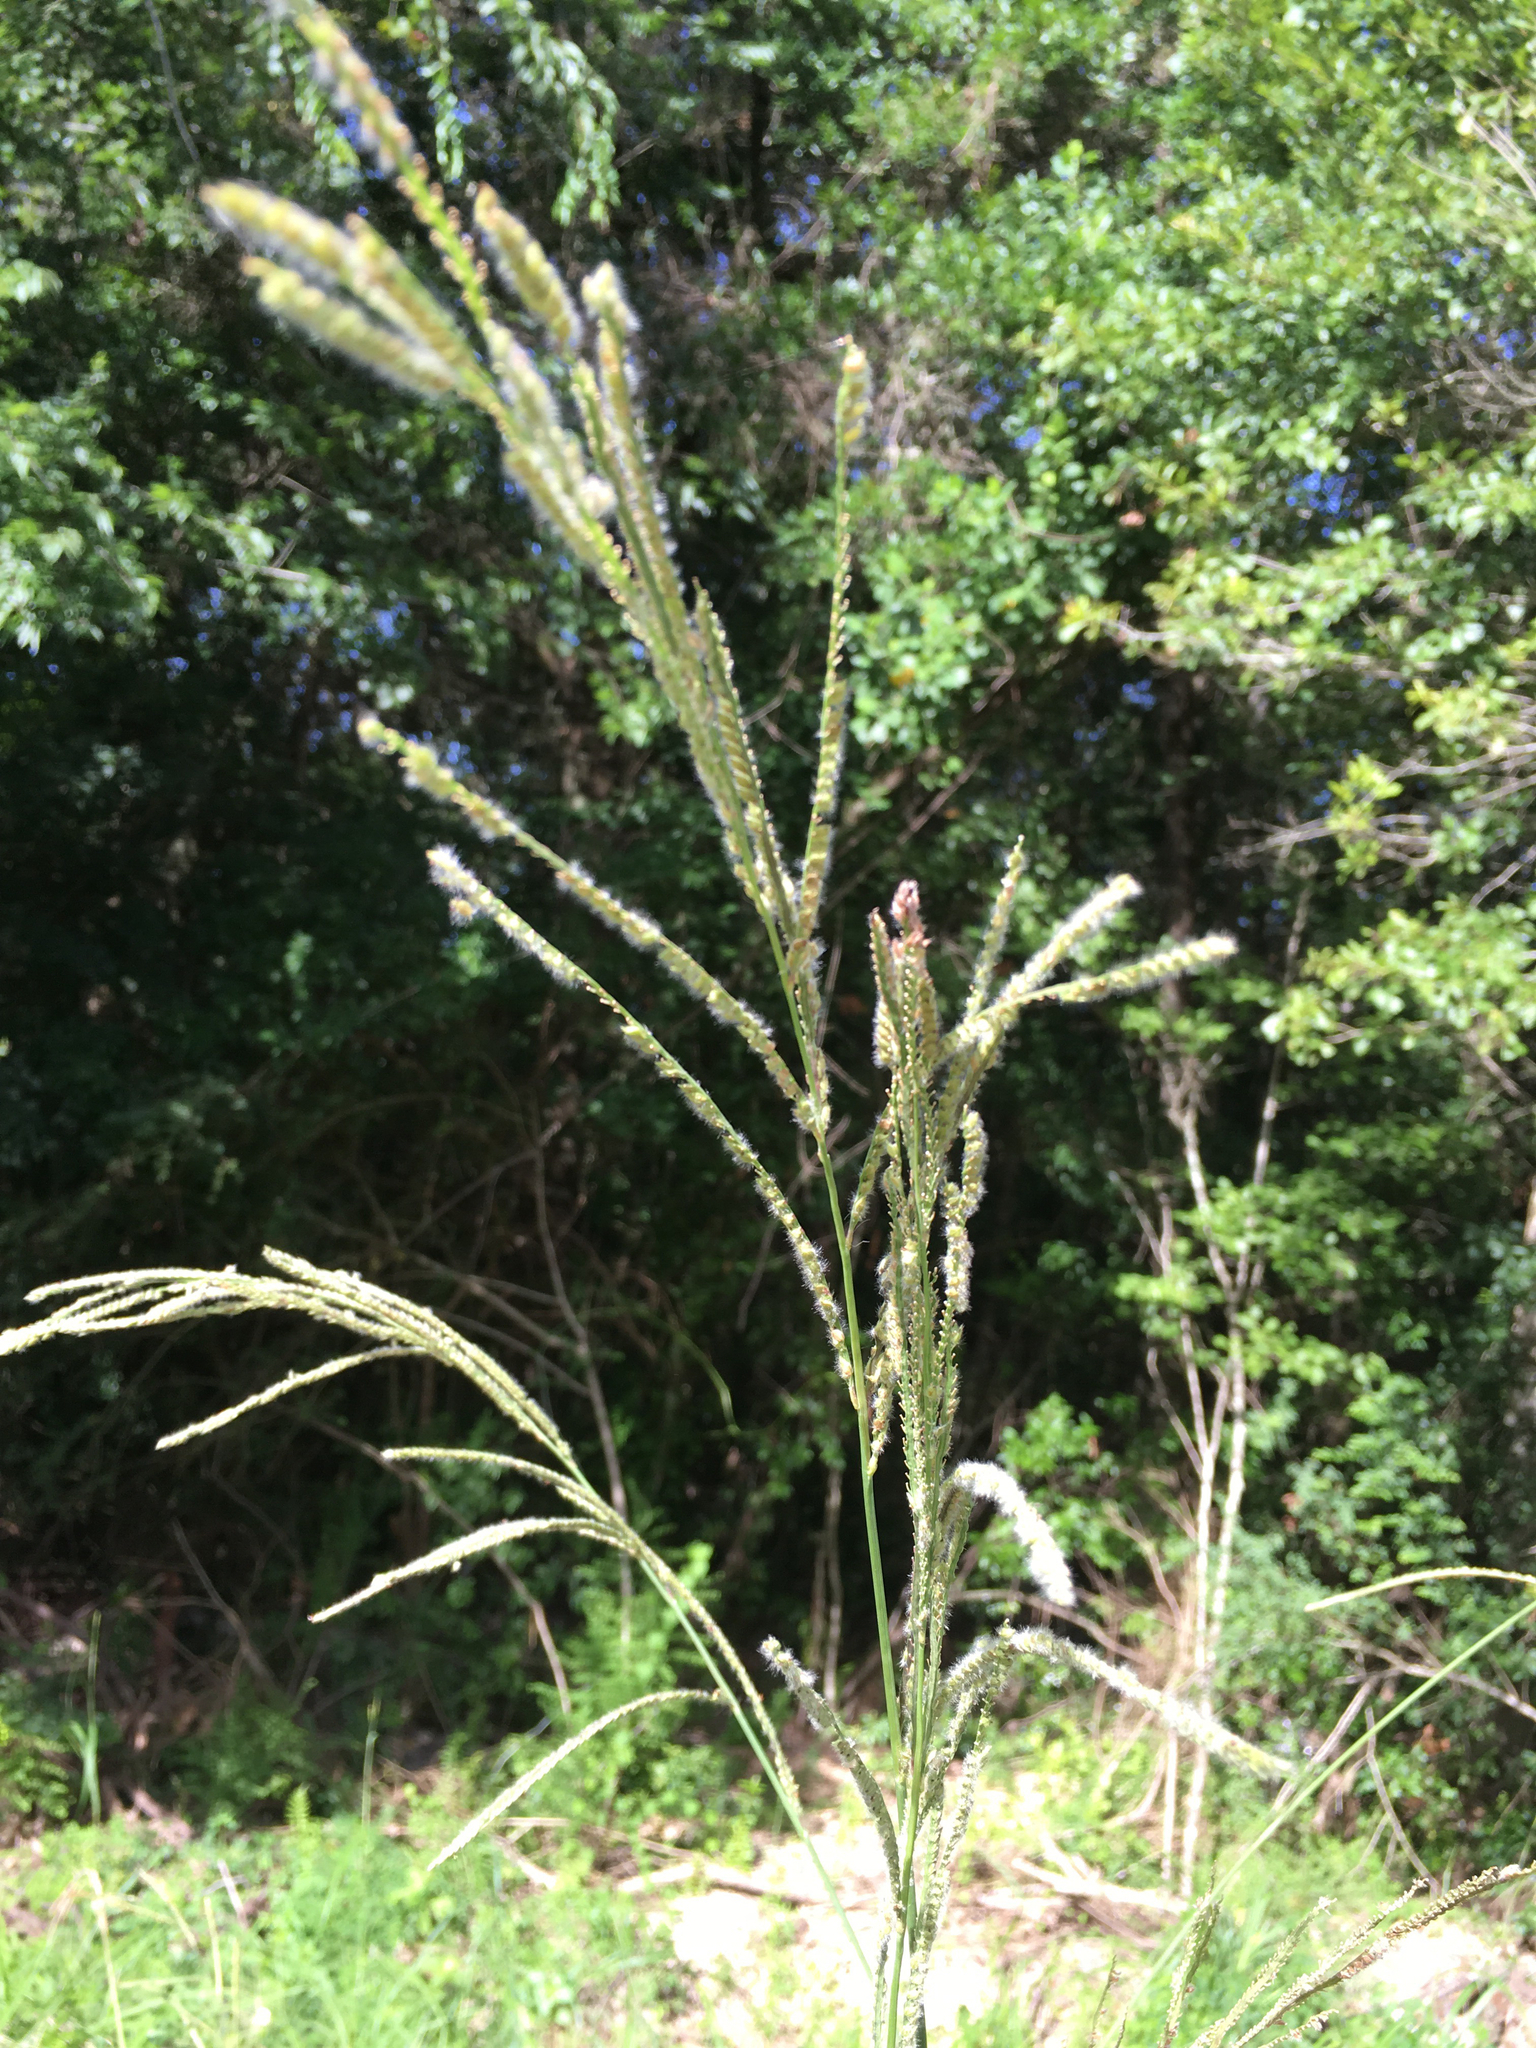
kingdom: Plantae
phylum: Tracheophyta
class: Liliopsida
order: Poales
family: Poaceae
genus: Paspalum
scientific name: Paspalum urvillei
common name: Vasey's grass
